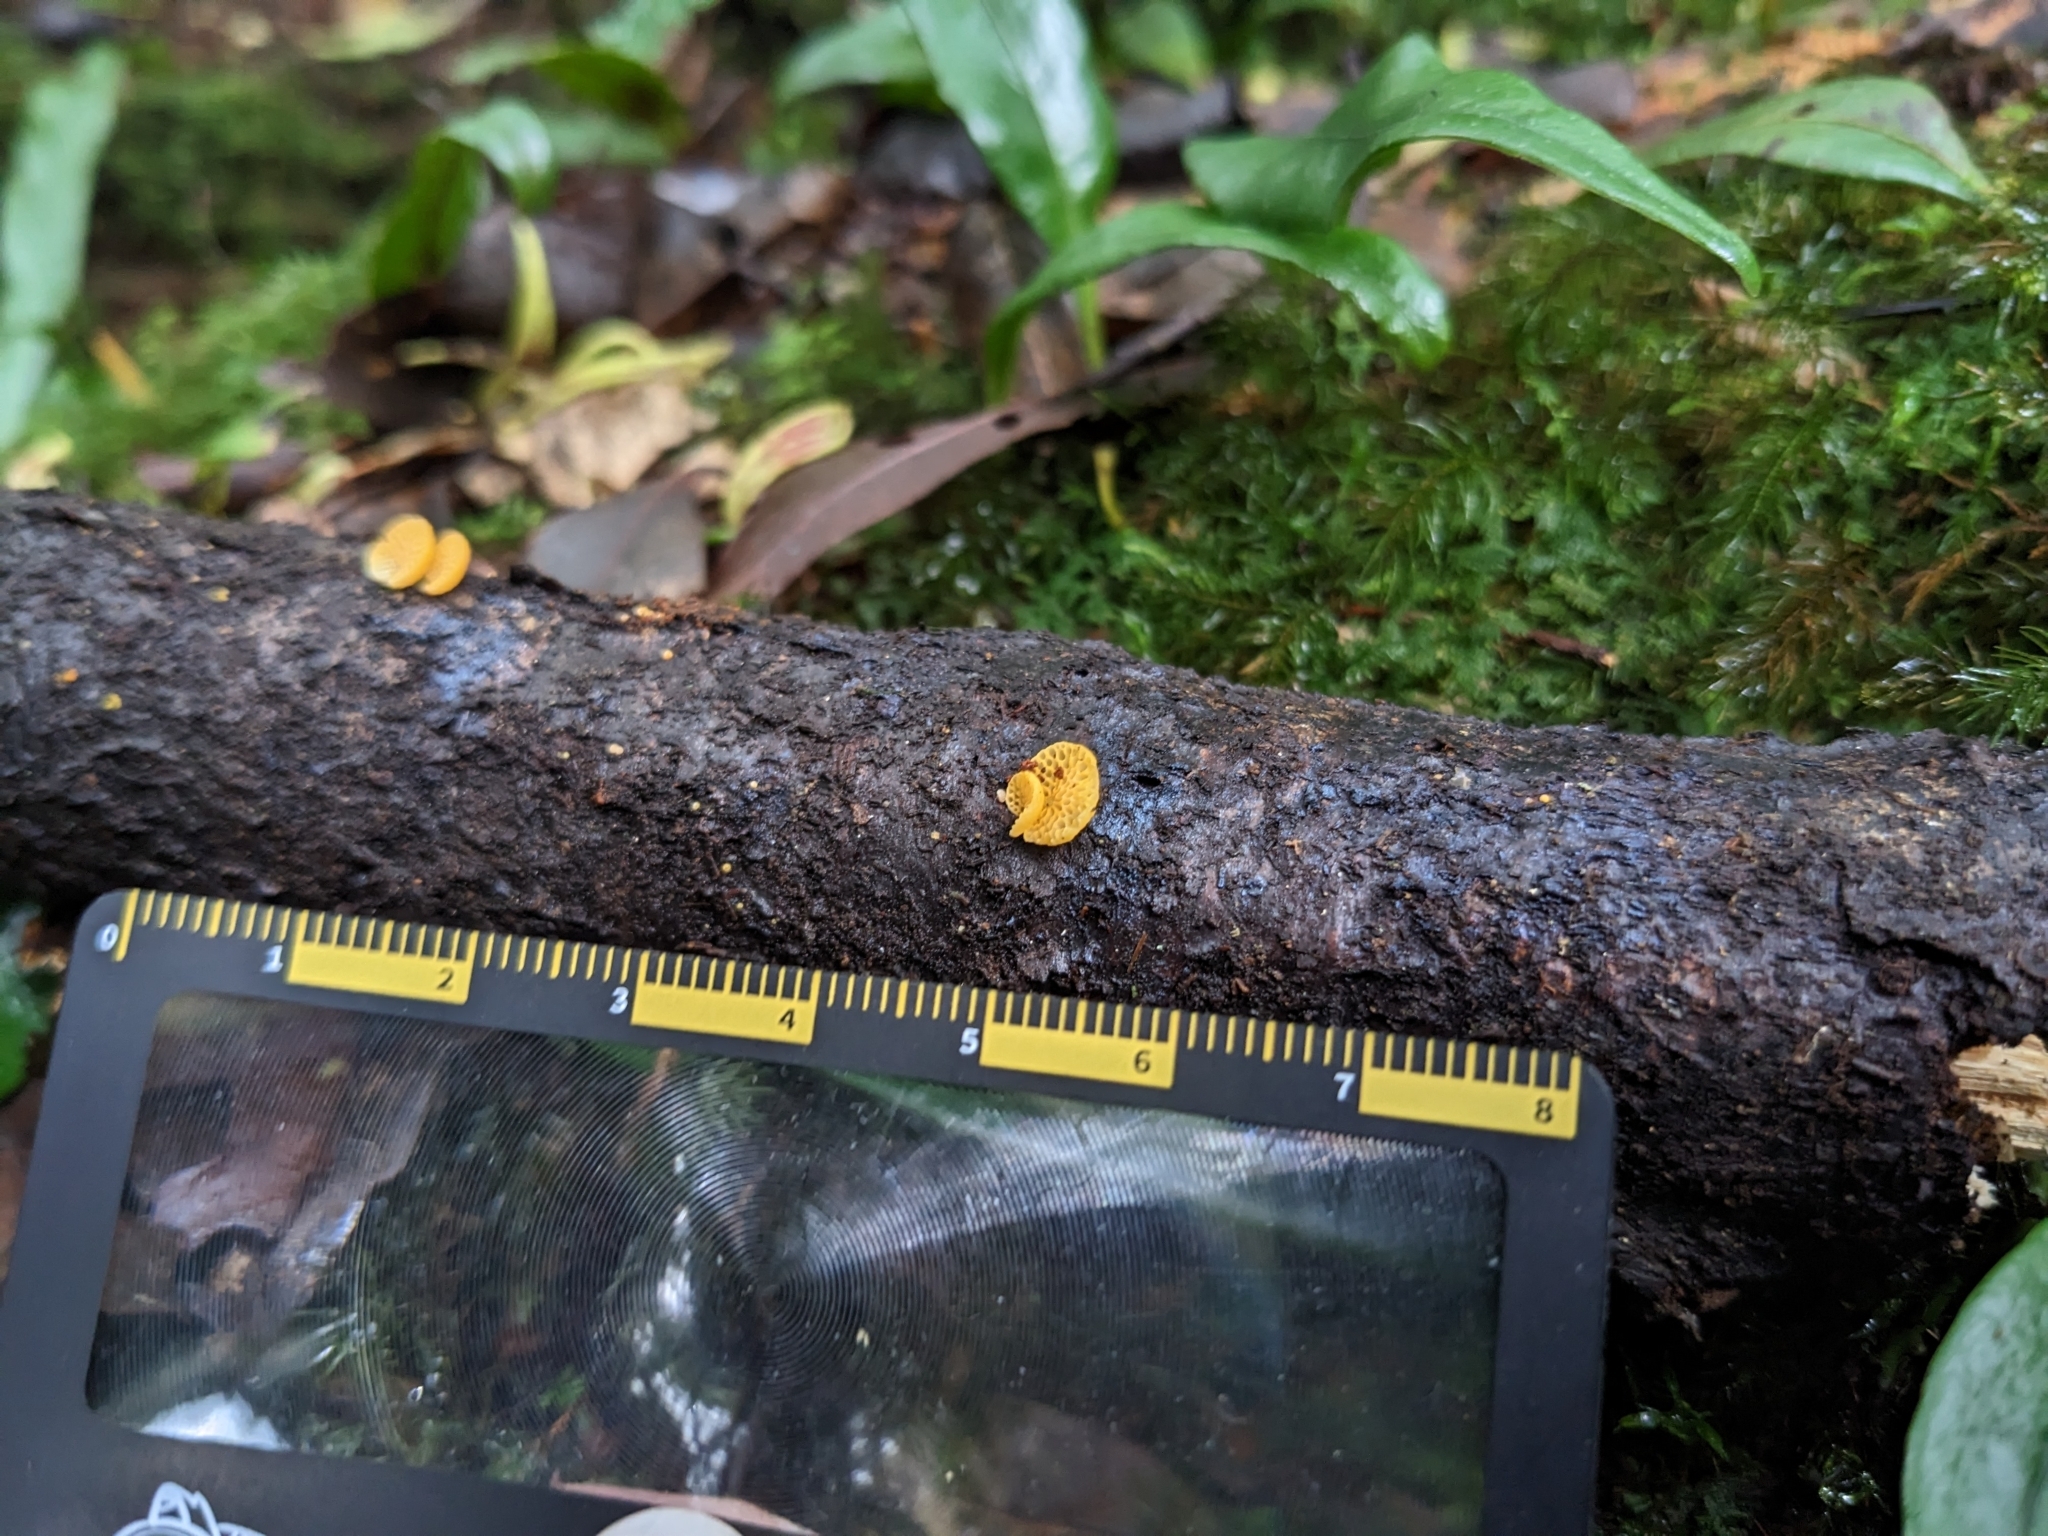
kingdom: Fungi
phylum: Basidiomycota
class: Agaricomycetes
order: Agaricales
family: Mycenaceae
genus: Favolaschia
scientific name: Favolaschia calocera
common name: Orange ping-pong bat
